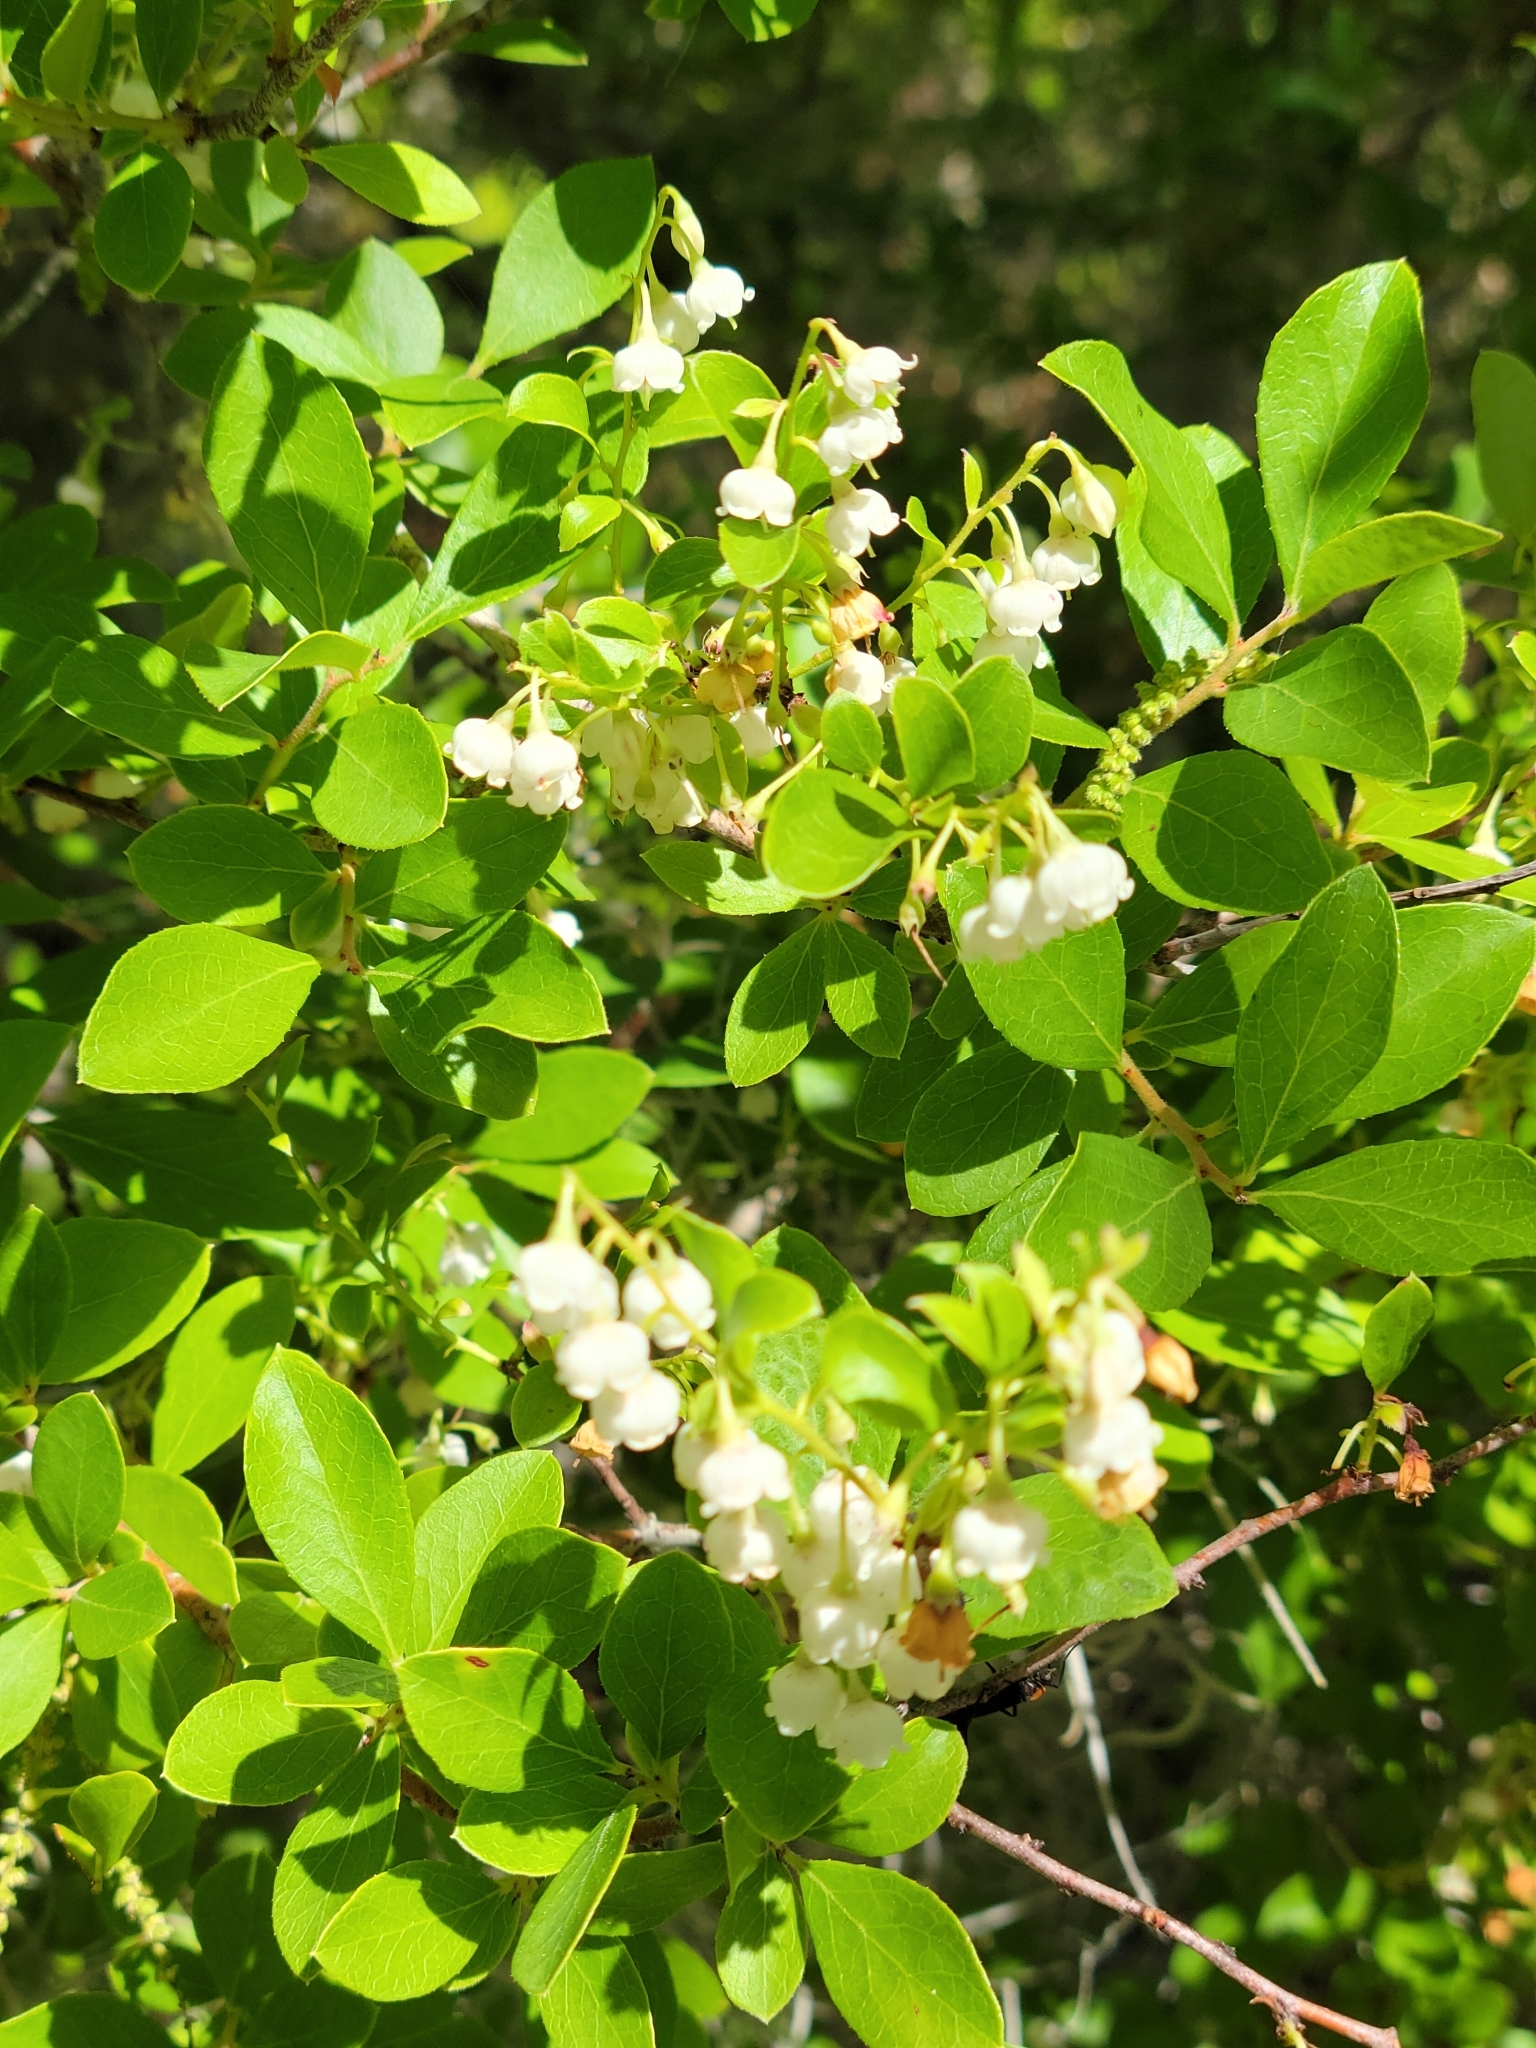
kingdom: Plantae
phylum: Tracheophyta
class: Magnoliopsida
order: Ericales
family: Ericaceae
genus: Vaccinium
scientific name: Vaccinium arboreum
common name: Farkleberry
